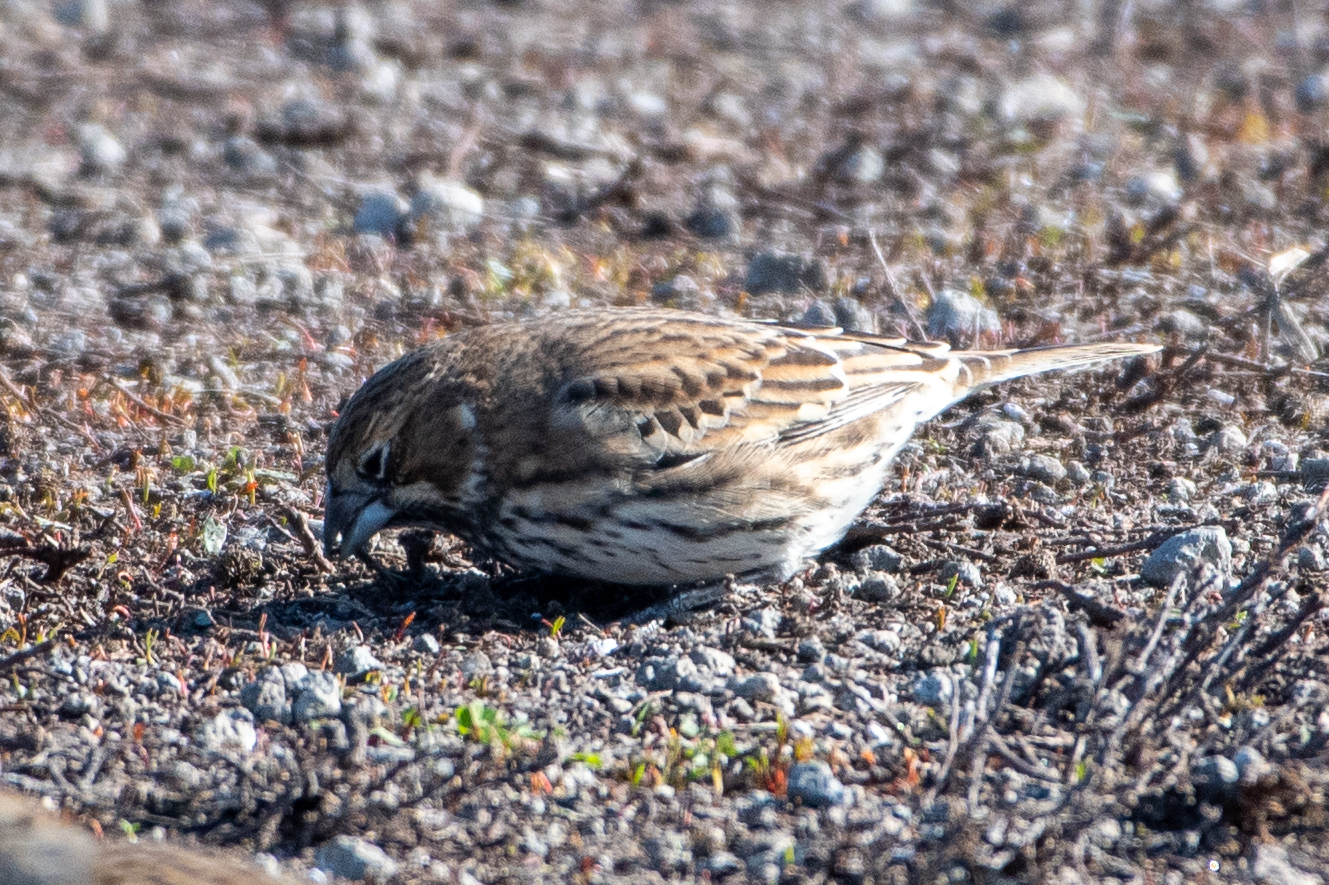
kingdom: Animalia
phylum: Chordata
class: Aves
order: Passeriformes
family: Passerellidae
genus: Calamospiza
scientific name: Calamospiza melanocorys
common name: Lark bunting
